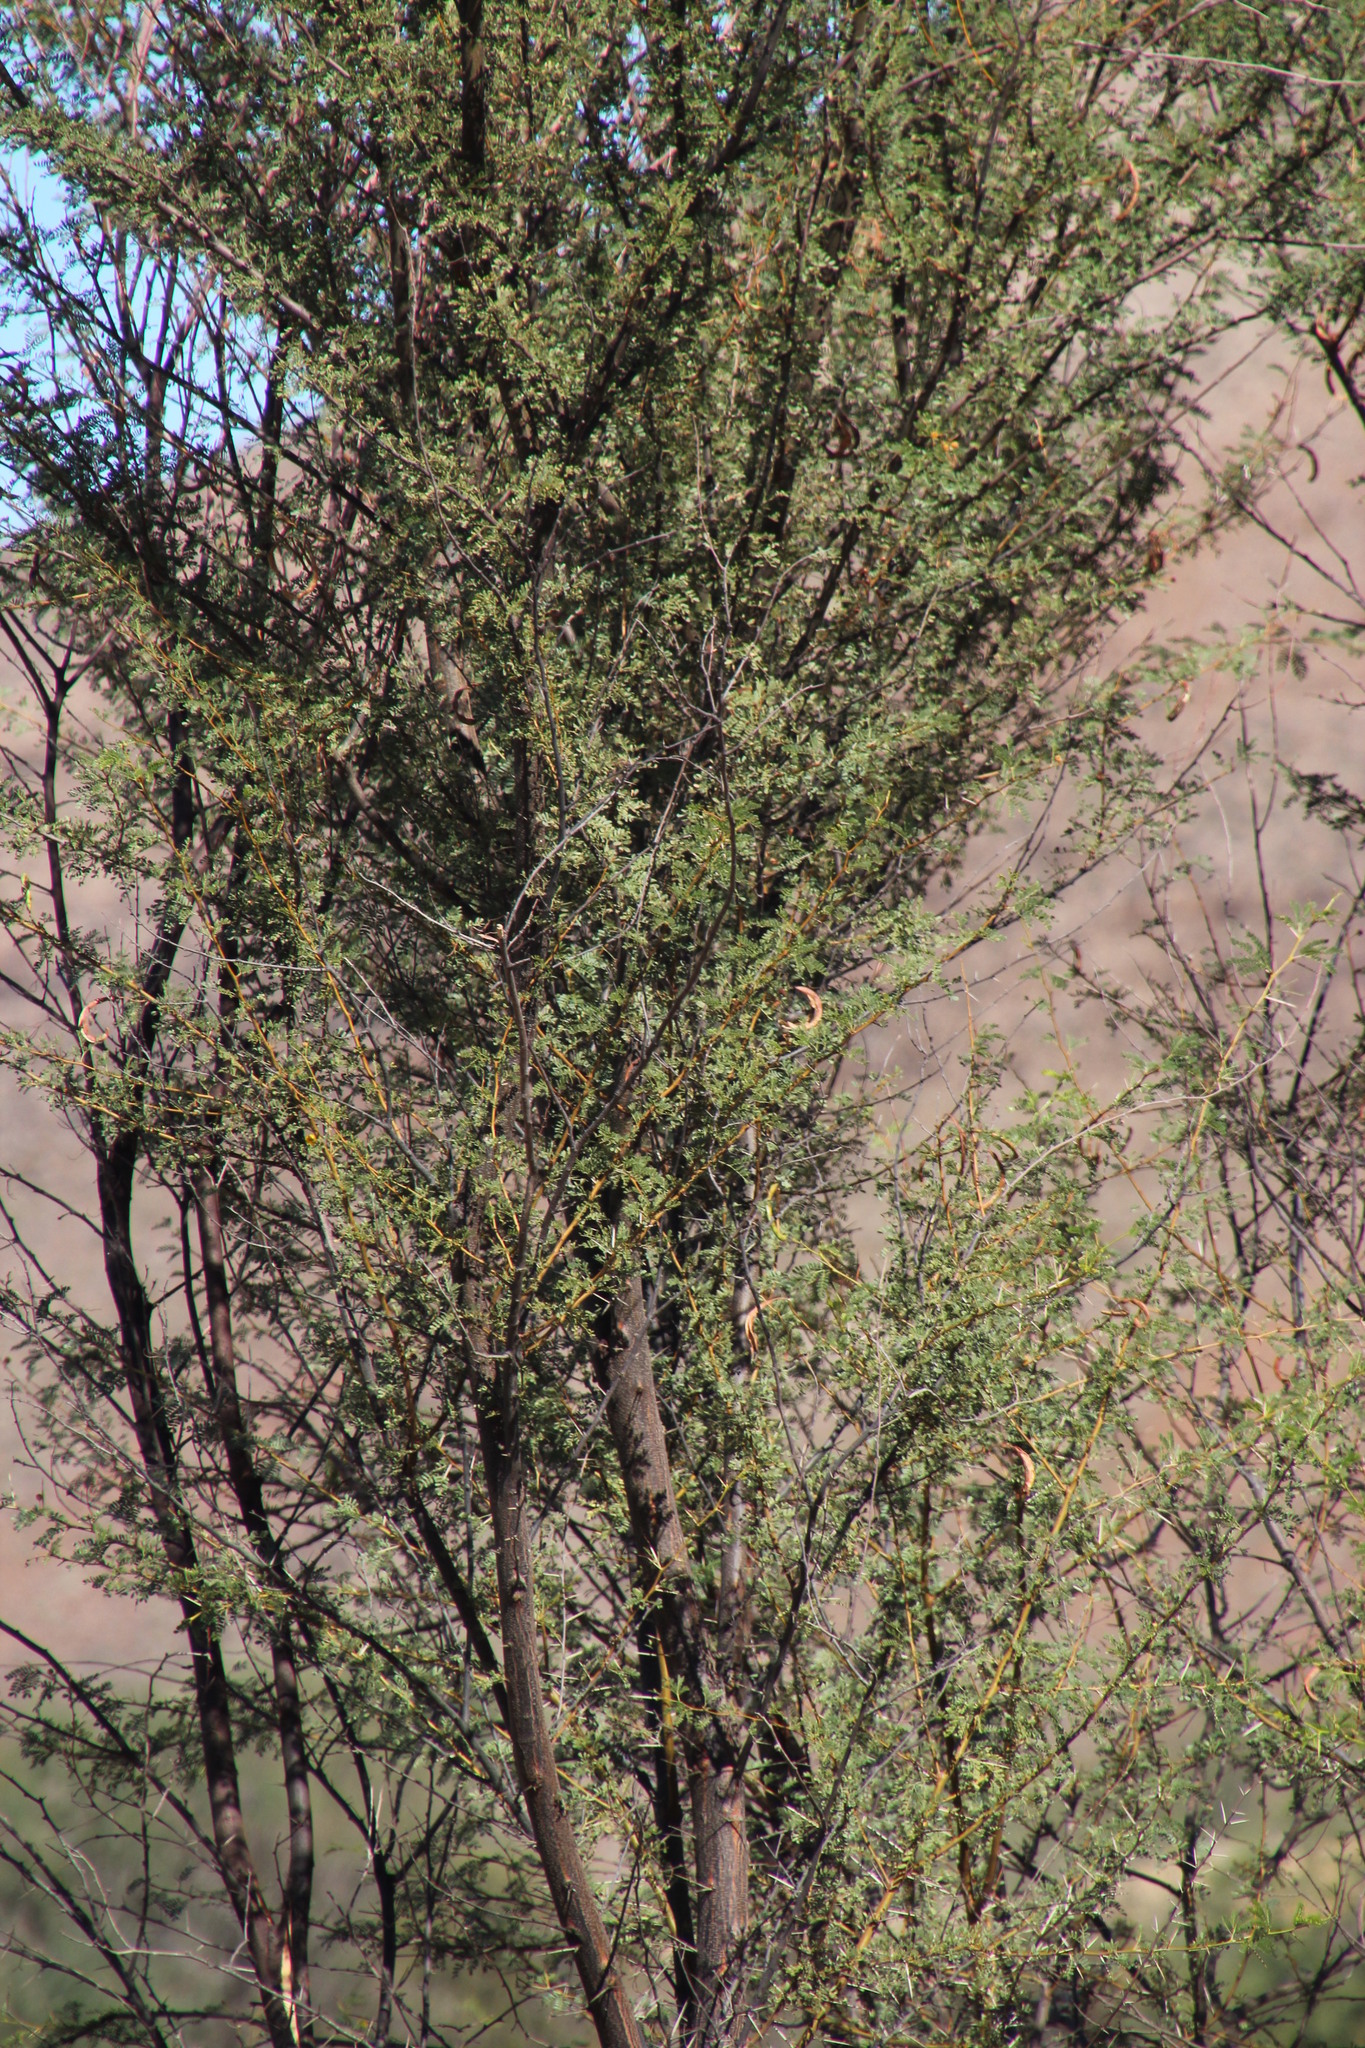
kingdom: Plantae
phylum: Tracheophyta
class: Magnoliopsida
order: Fabales
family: Fabaceae
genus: Vachellia
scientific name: Vachellia karroo
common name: Sweet thorn
